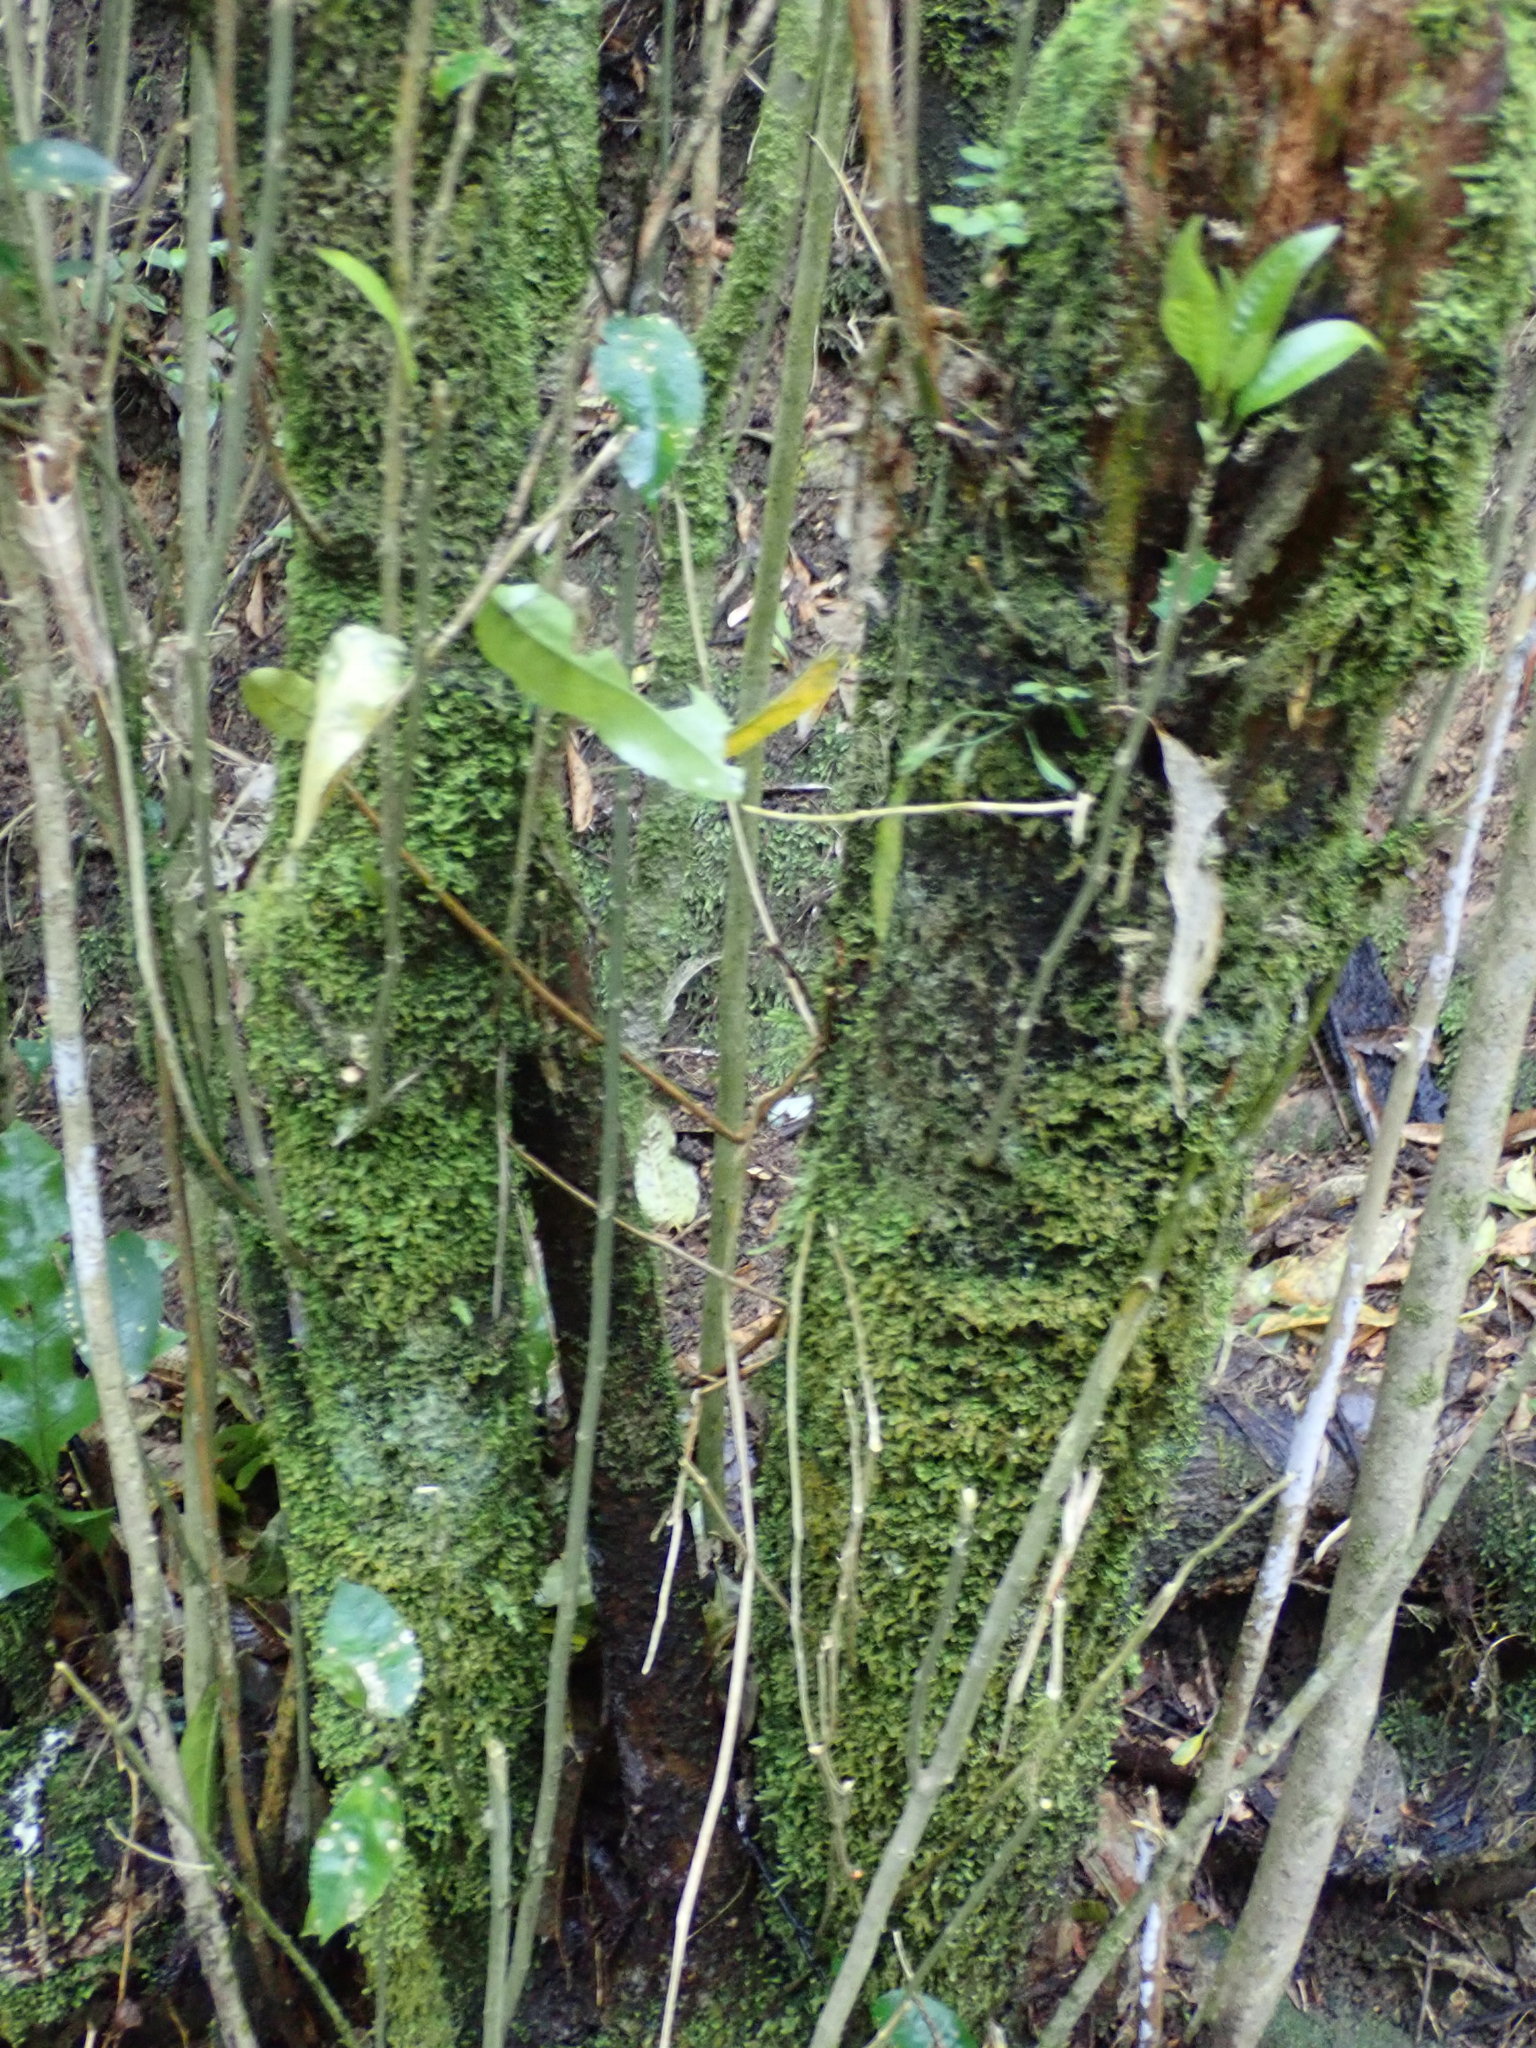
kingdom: Plantae
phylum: Tracheophyta
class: Magnoliopsida
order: Malpighiales
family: Violaceae
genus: Melicytus
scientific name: Melicytus ramiflorus
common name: Mahoe
